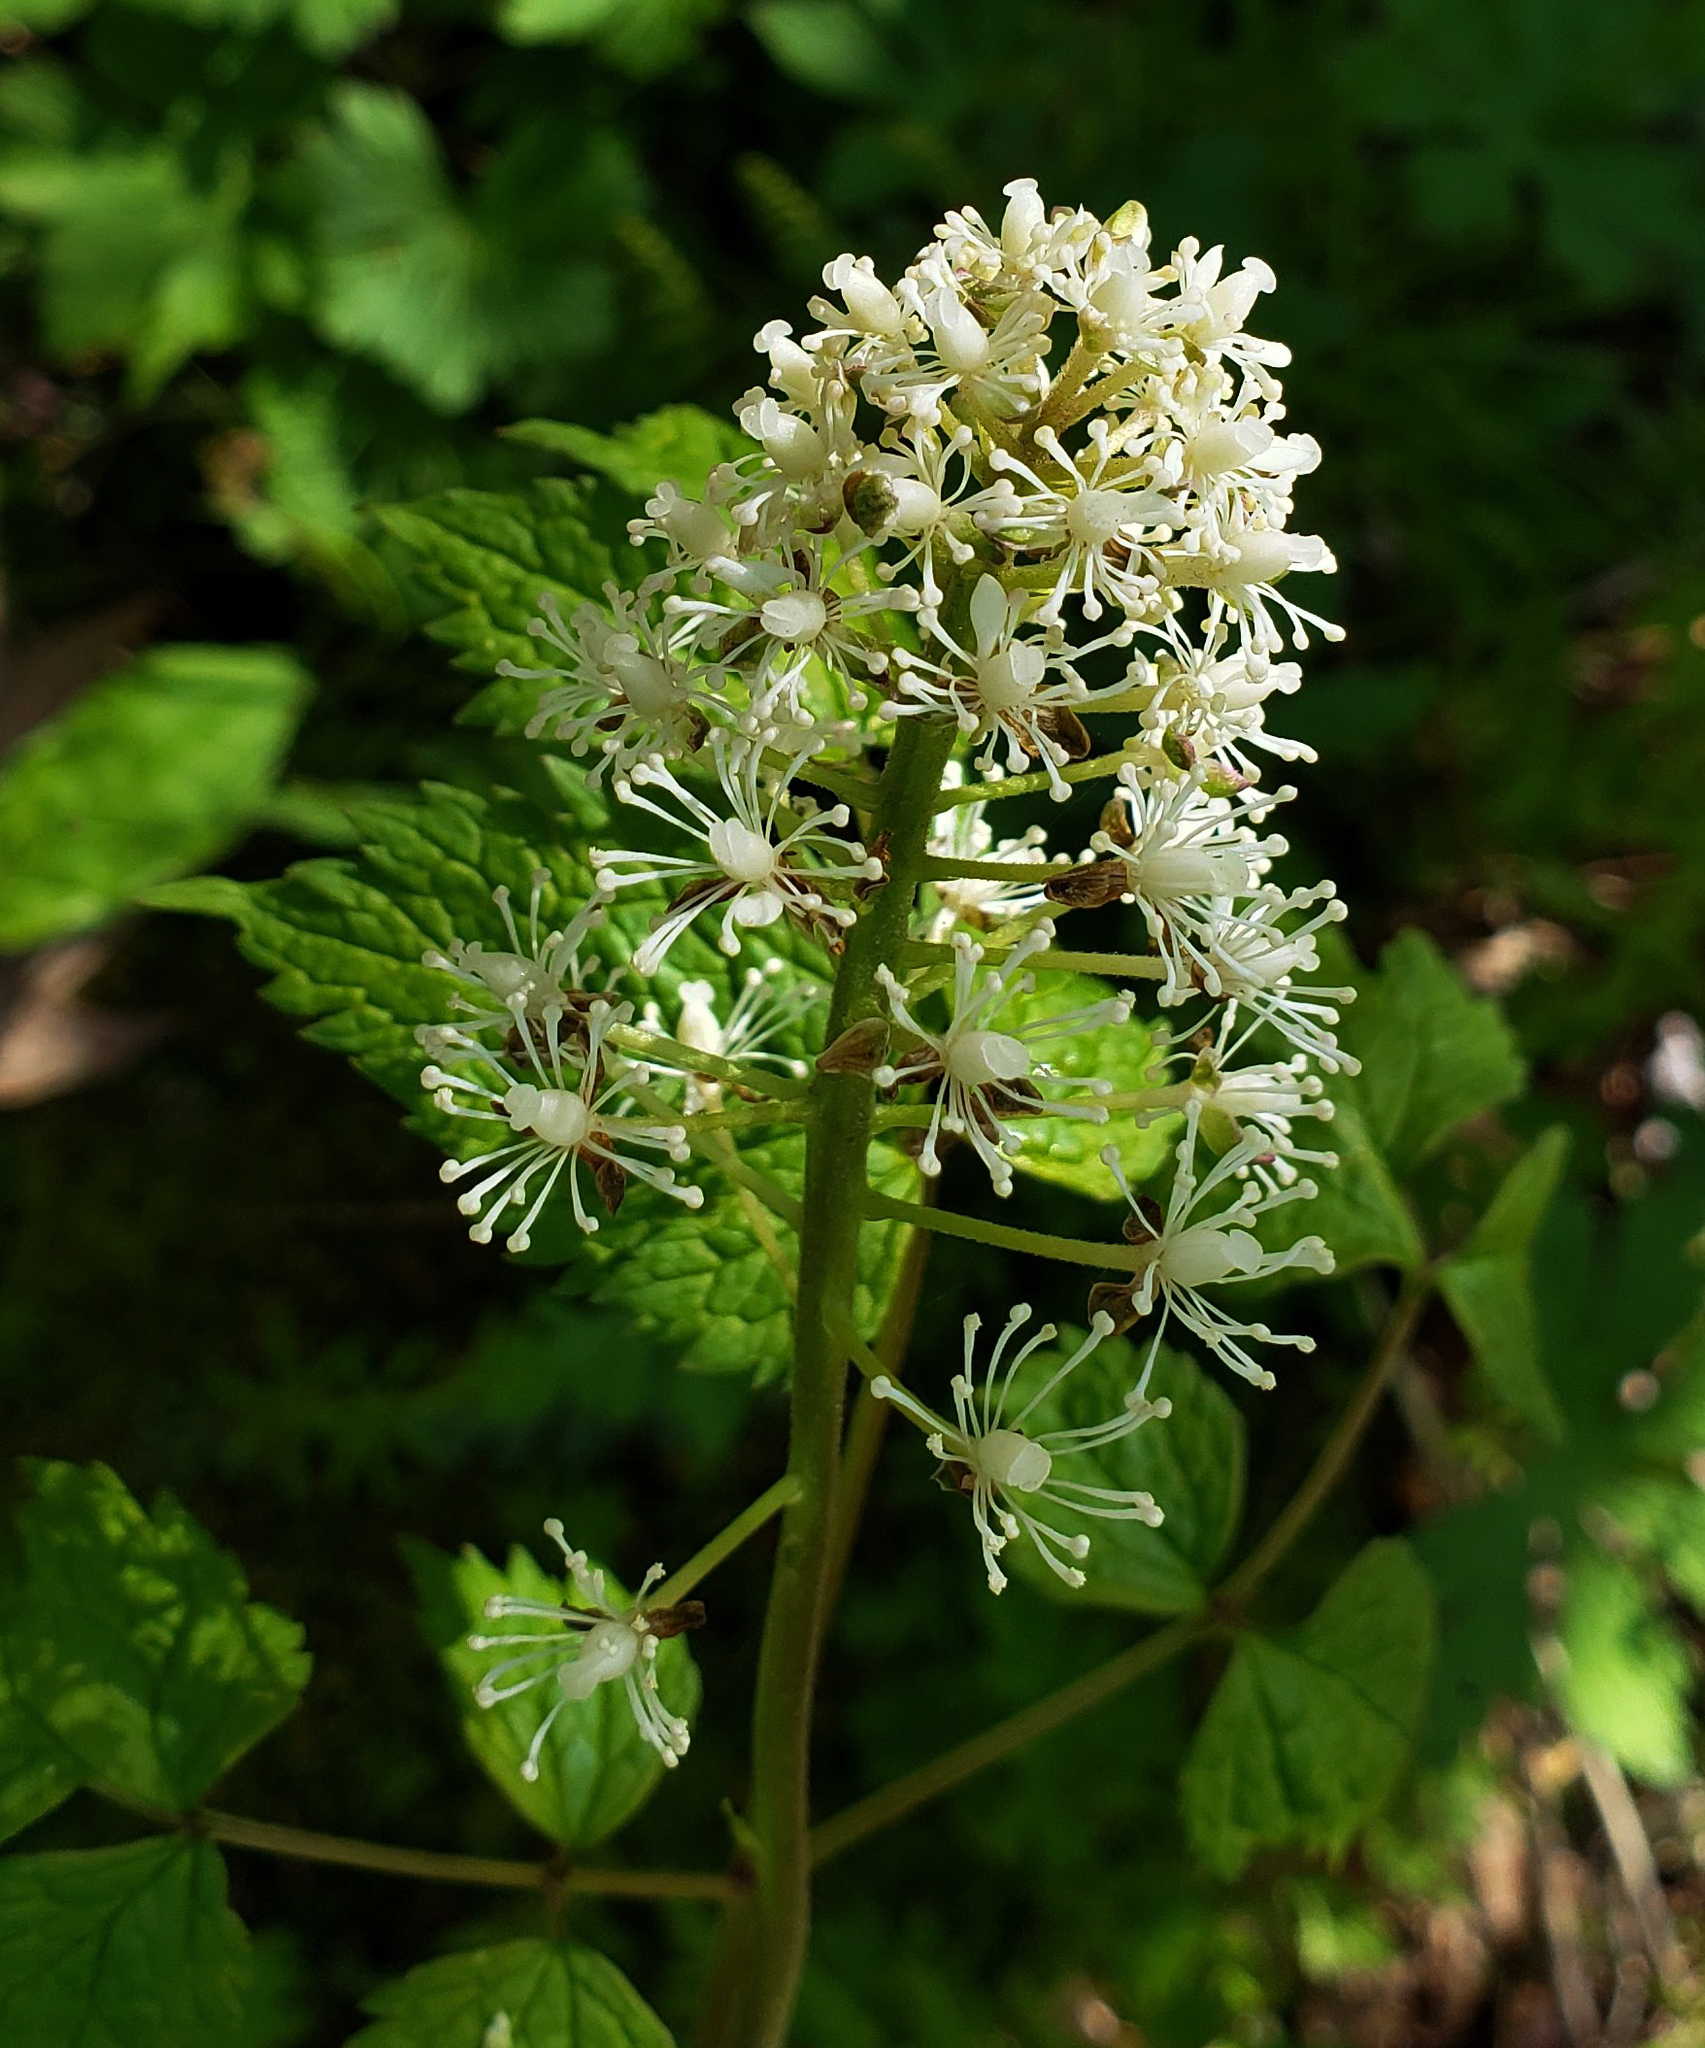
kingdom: Plantae
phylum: Tracheophyta
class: Magnoliopsida
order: Ranunculales
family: Ranunculaceae
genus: Actaea
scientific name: Actaea rubra
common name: Red baneberry
